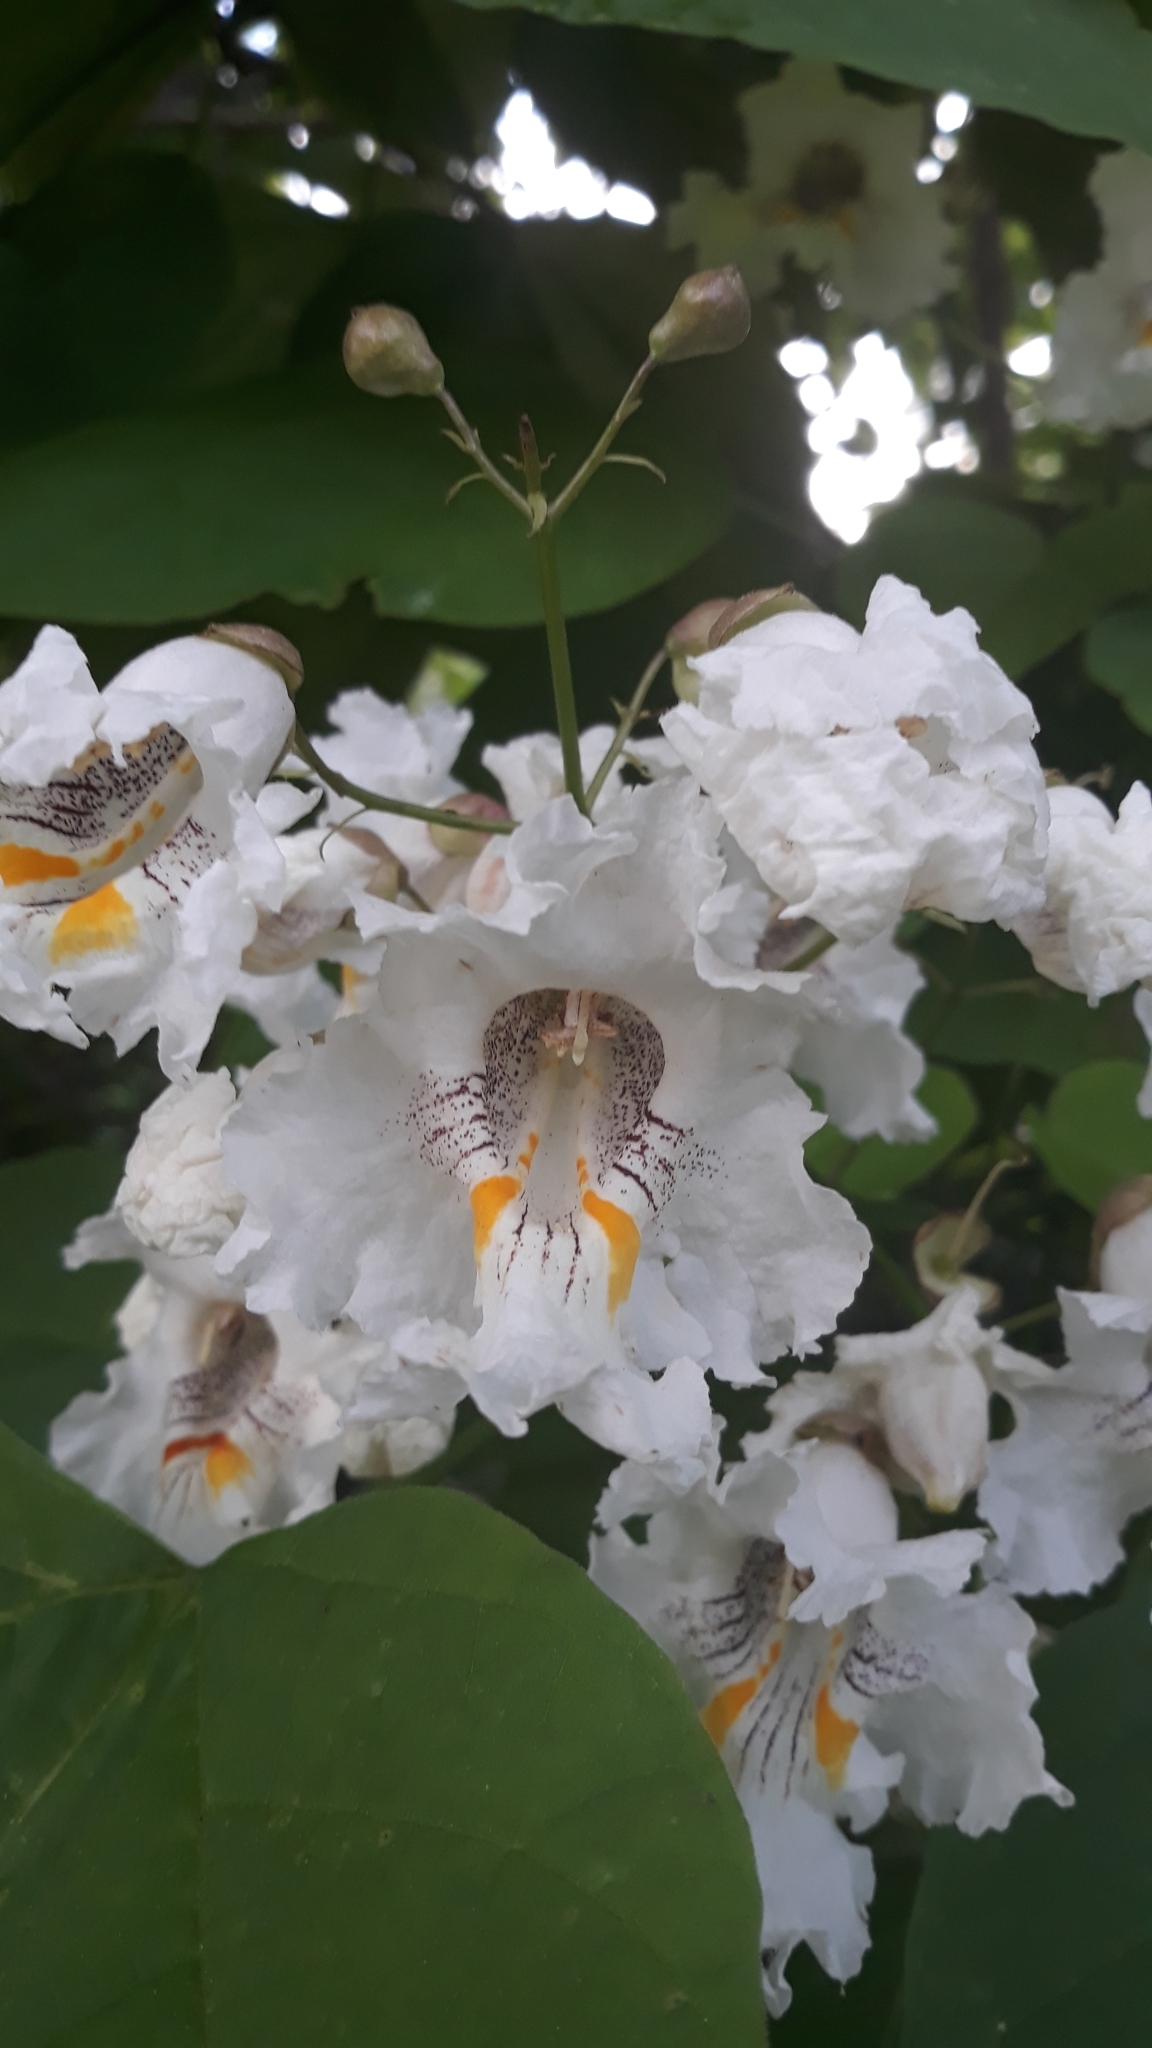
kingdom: Plantae
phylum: Tracheophyta
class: Magnoliopsida
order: Lamiales
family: Bignoniaceae
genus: Catalpa
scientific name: Catalpa speciosa
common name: Northern catalpa
